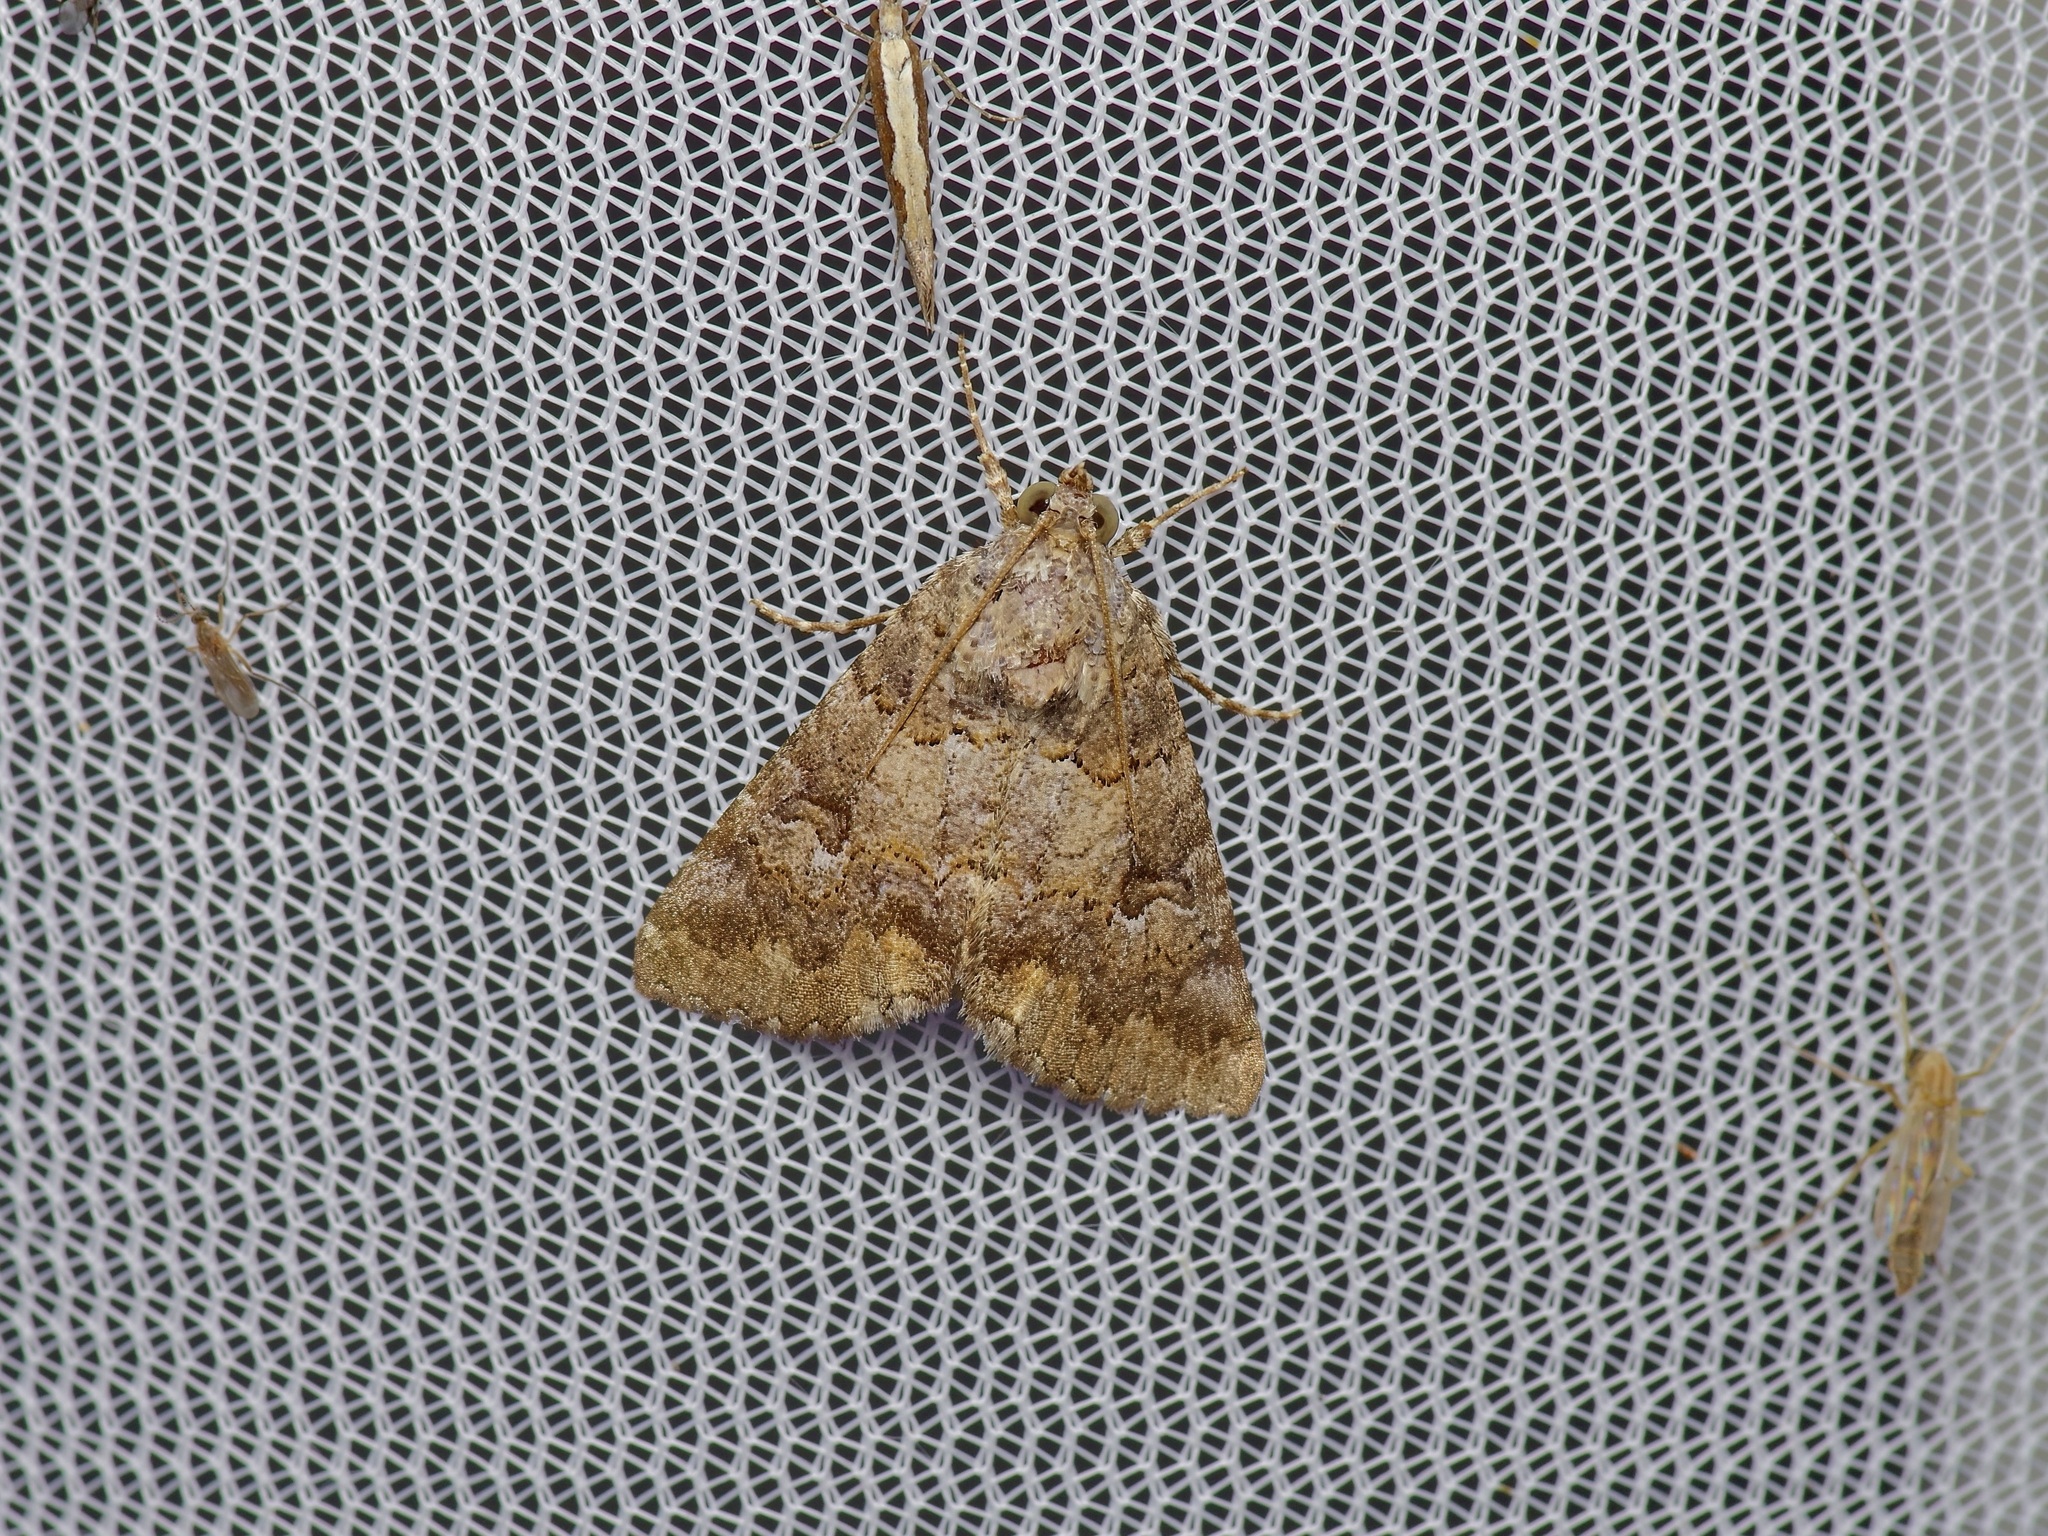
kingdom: Animalia
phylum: Arthropoda
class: Insecta
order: Lepidoptera
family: Erebidae
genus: Eubolina
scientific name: Eubolina impartialis
